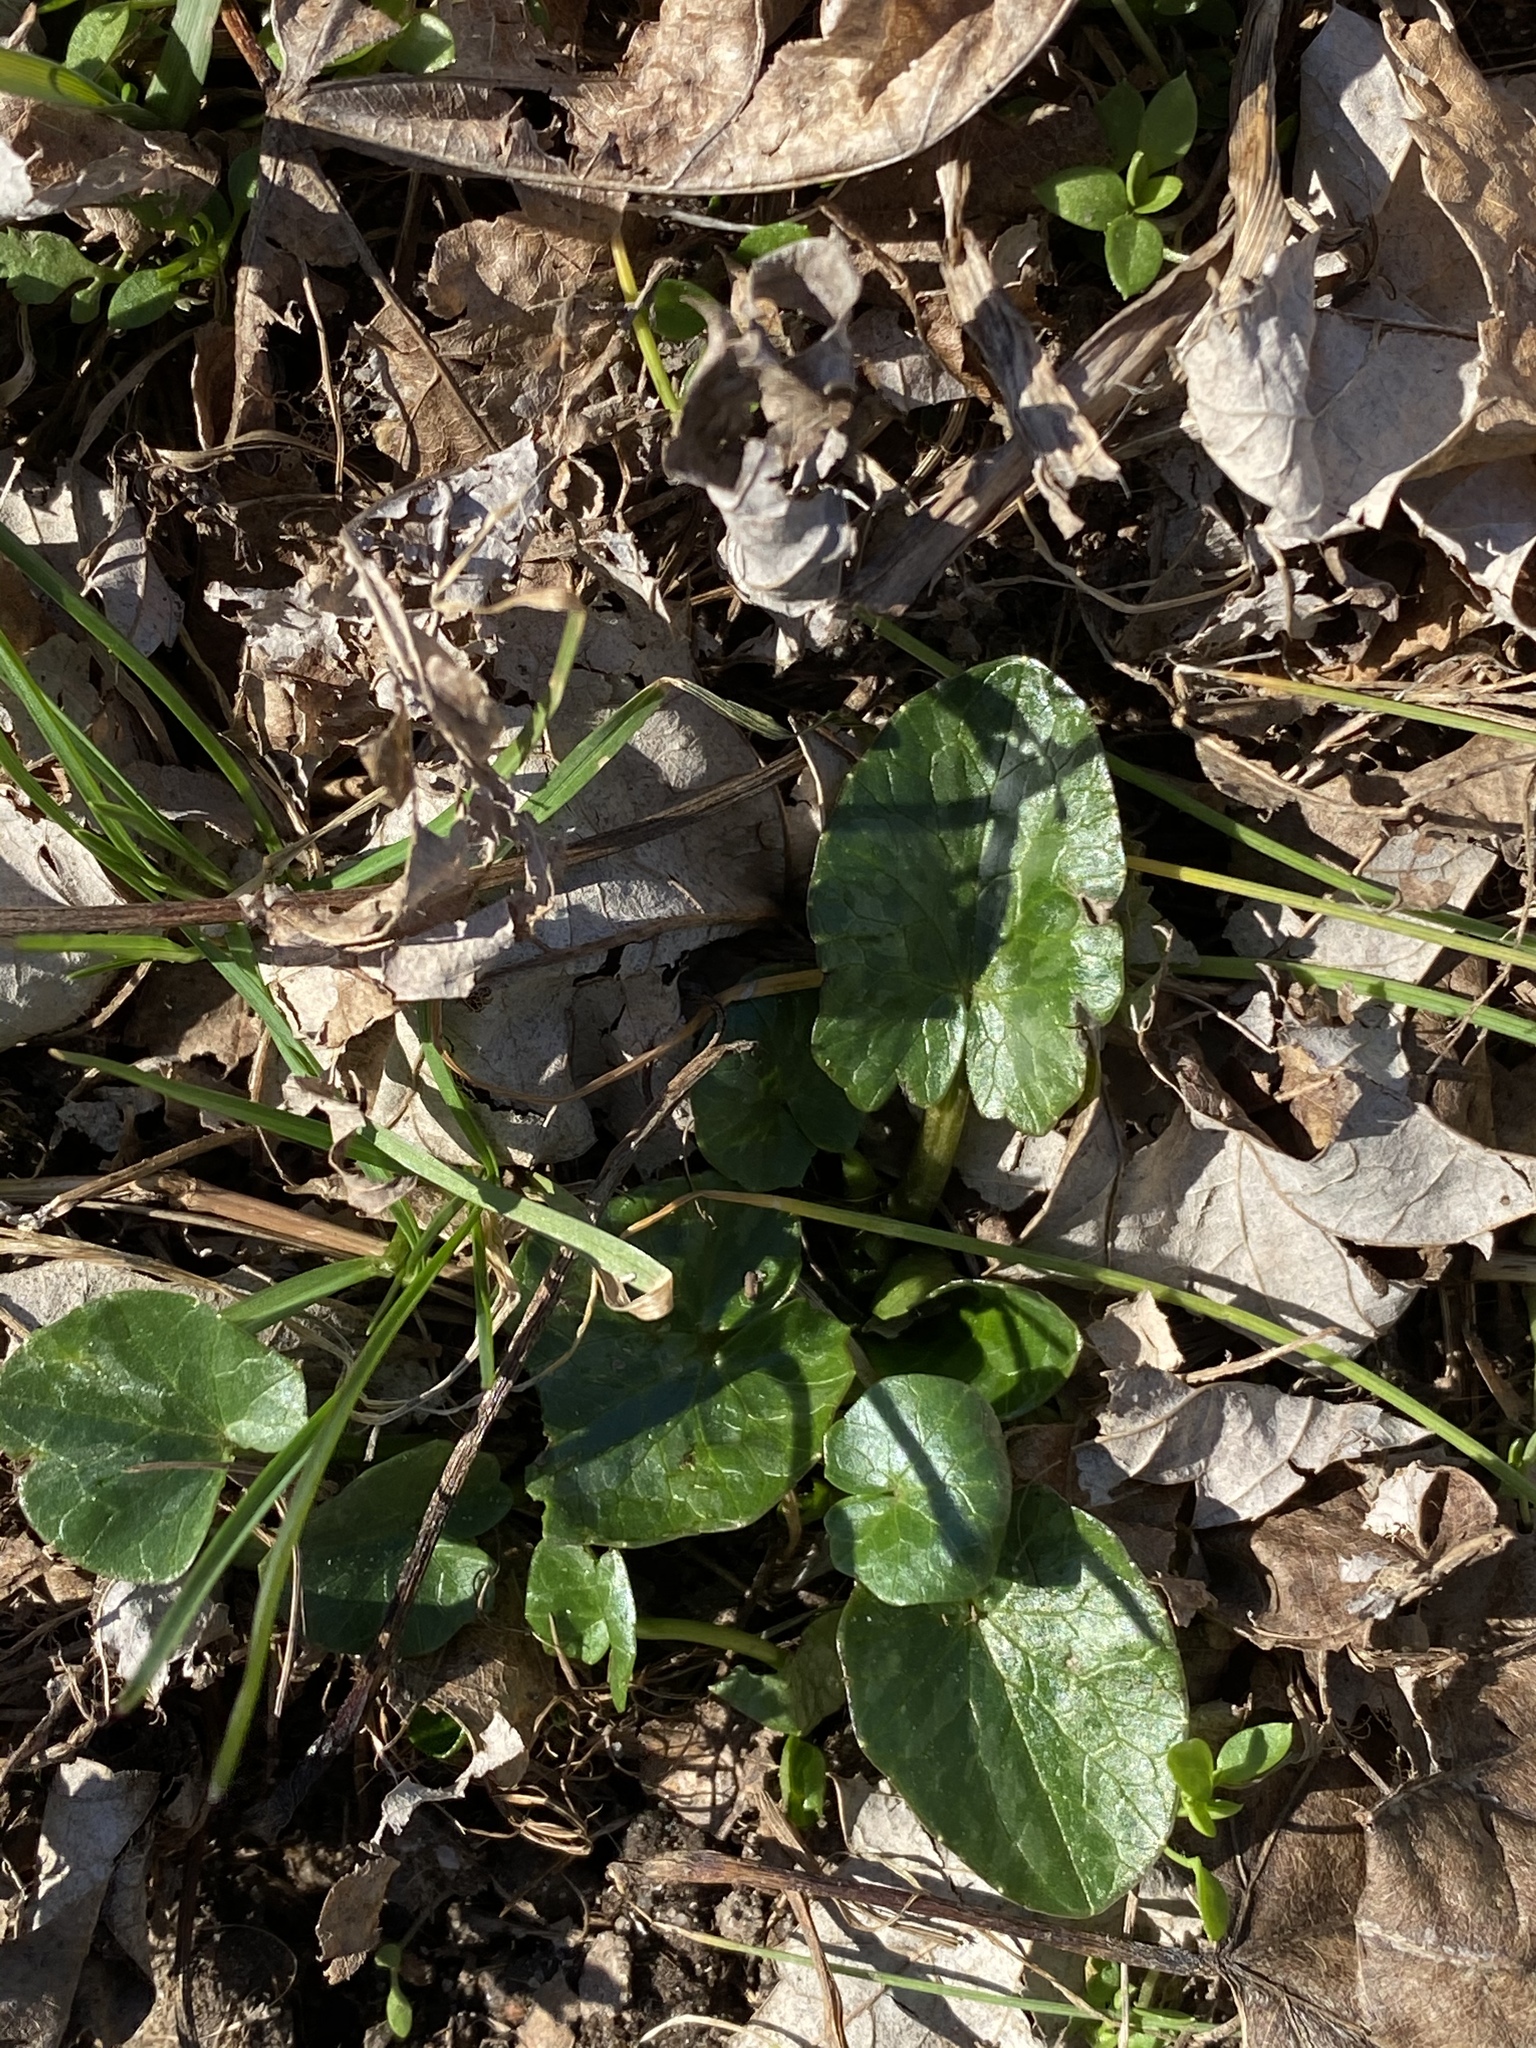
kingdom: Plantae
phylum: Tracheophyta
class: Magnoliopsida
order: Ranunculales
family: Ranunculaceae
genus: Ficaria
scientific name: Ficaria verna
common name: Lesser celandine
